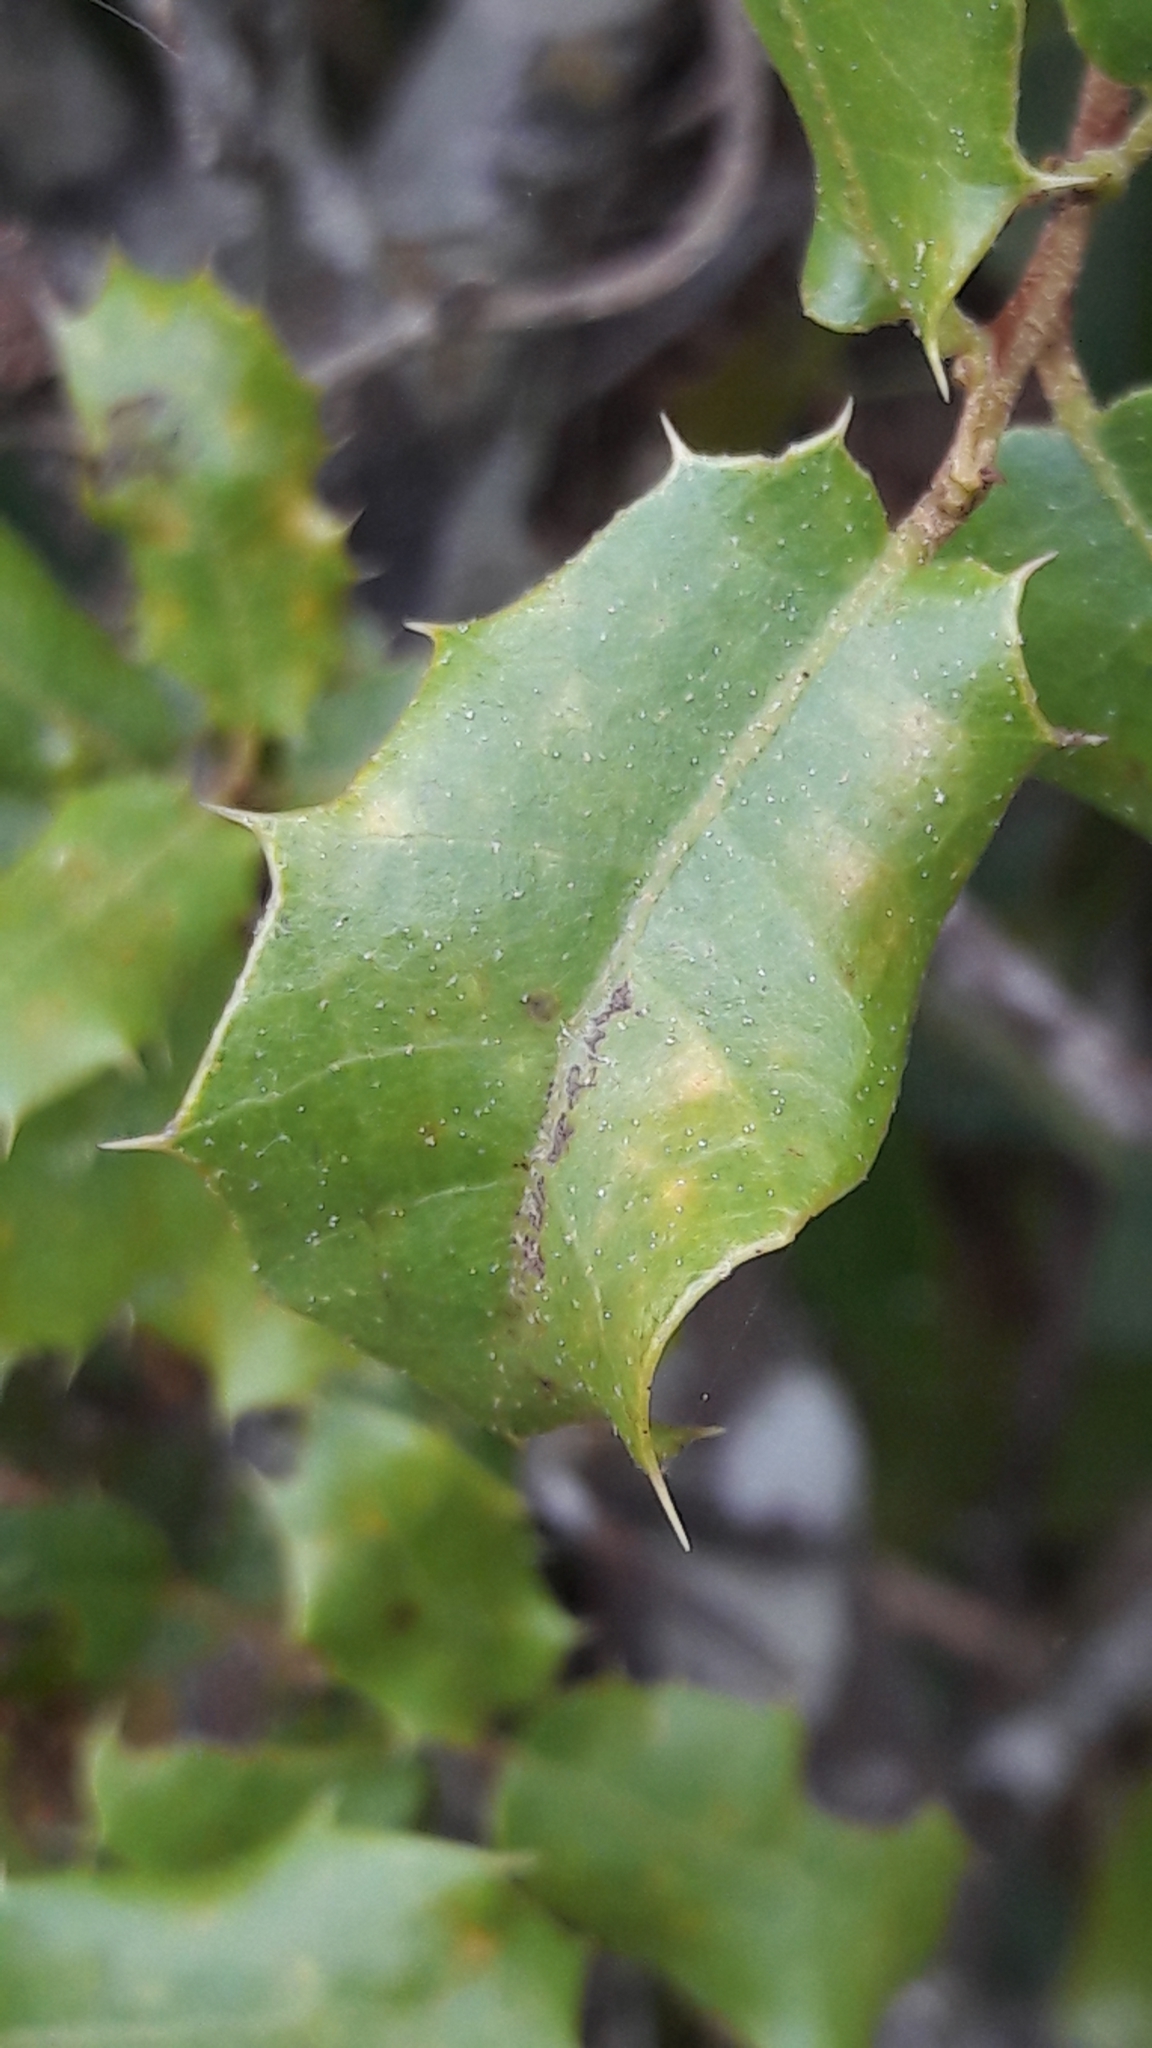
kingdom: Plantae
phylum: Tracheophyta
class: Magnoliopsida
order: Fagales
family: Fagaceae
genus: Quercus
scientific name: Quercus coccifera
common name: Kermes oak
